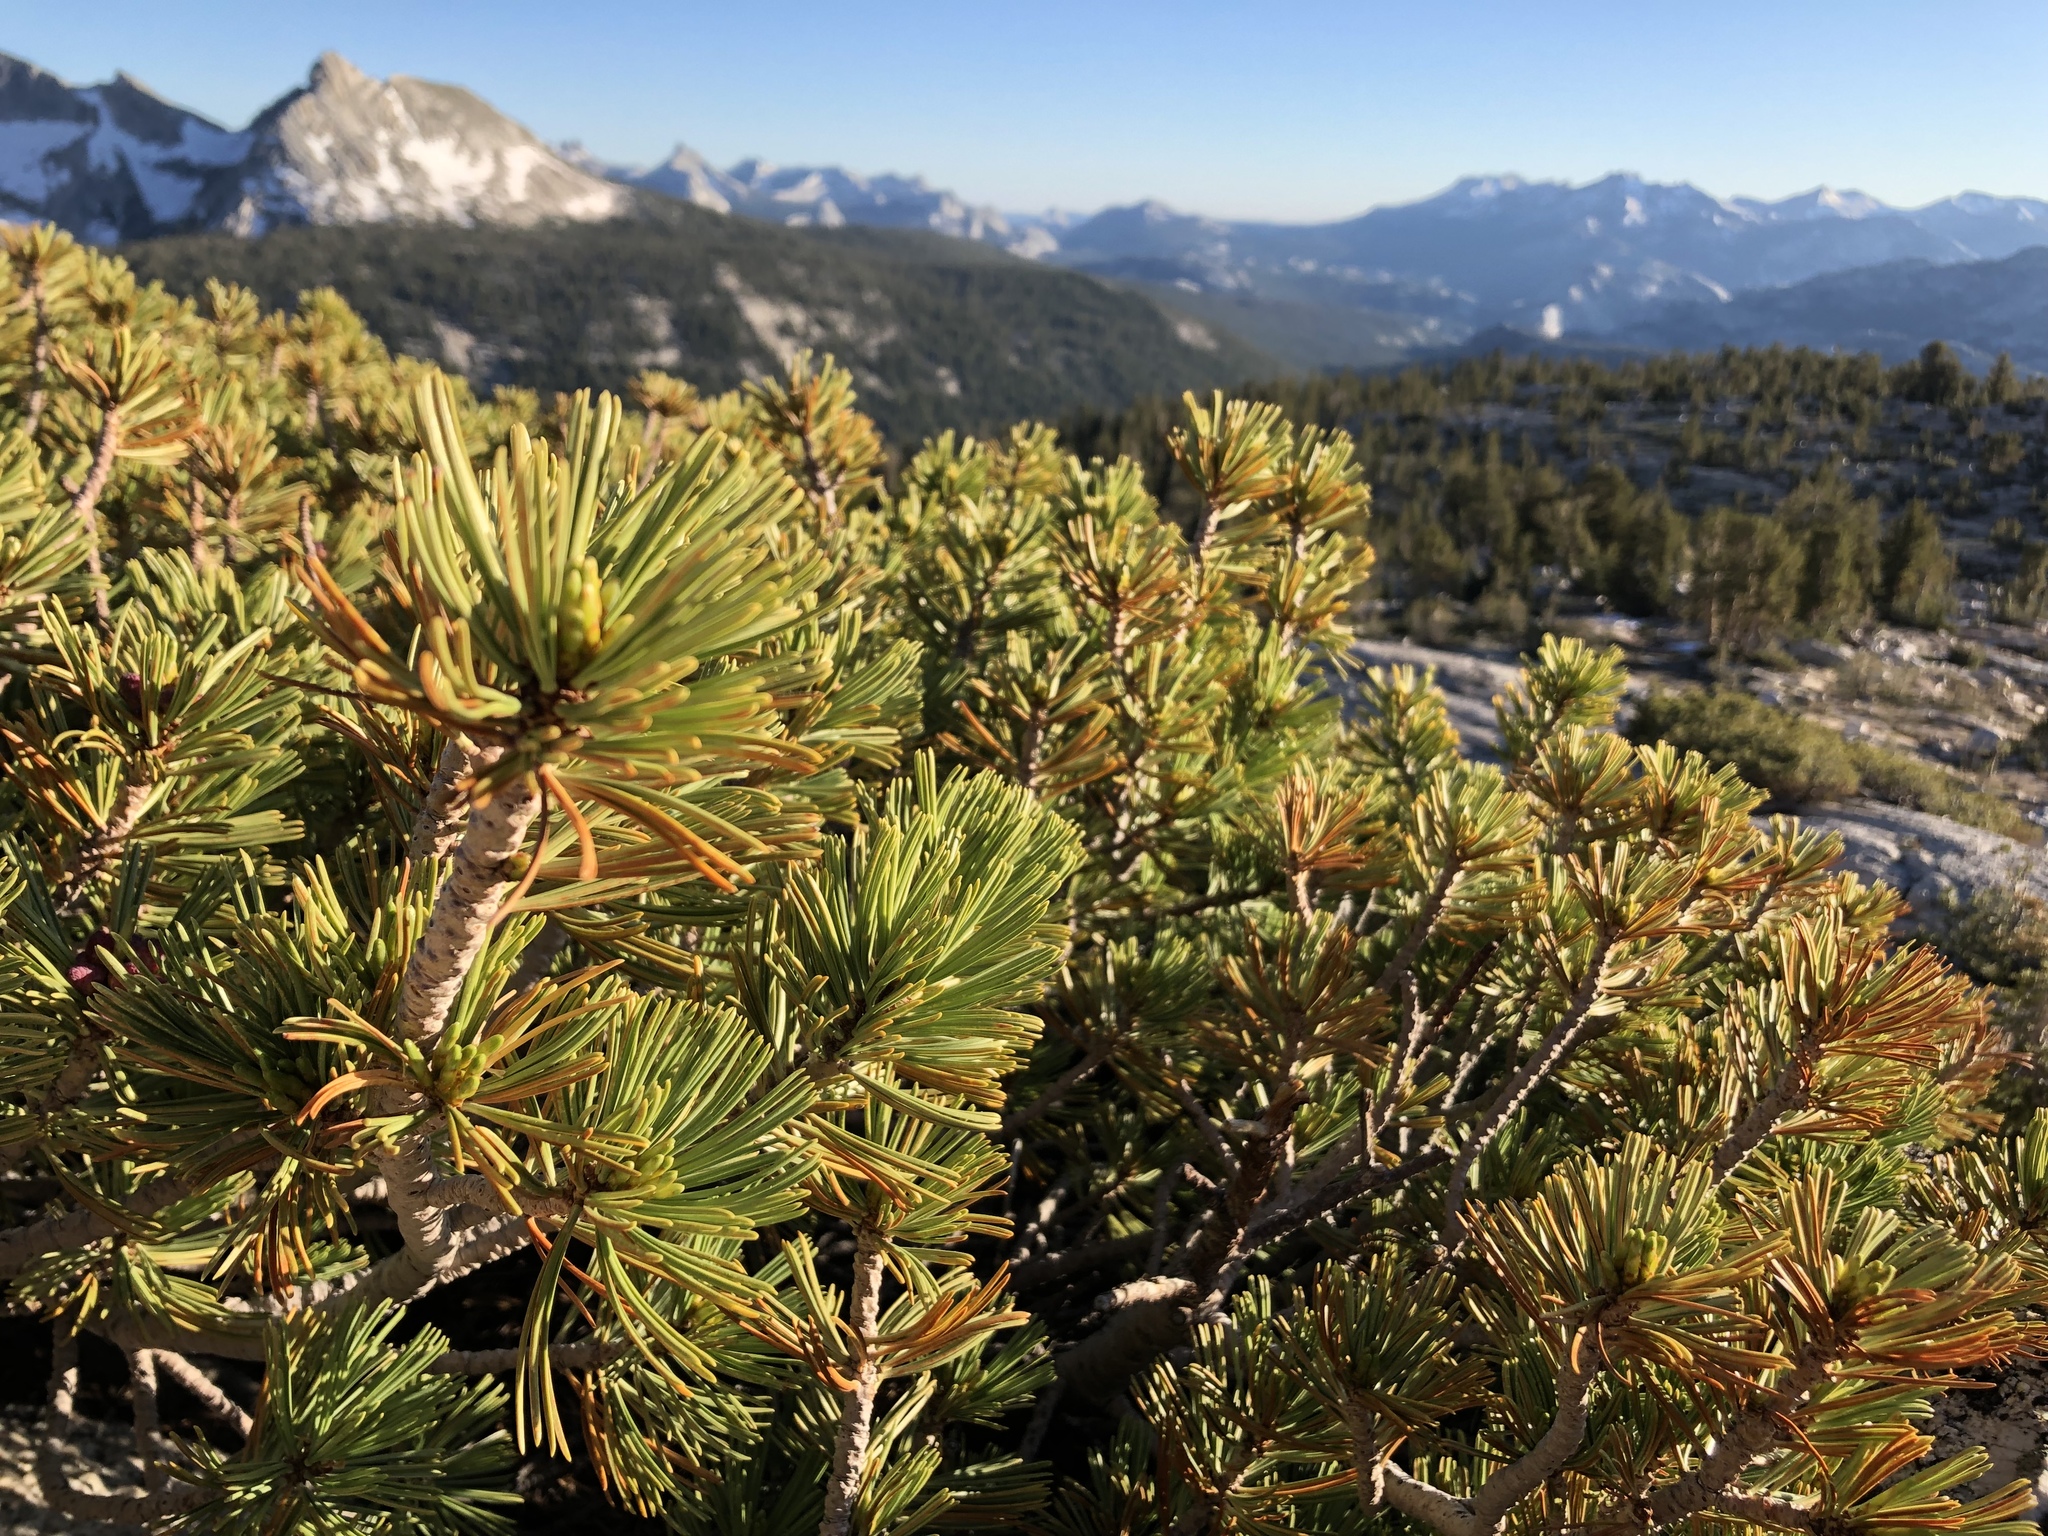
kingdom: Plantae
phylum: Tracheophyta
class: Pinopsida
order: Pinales
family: Pinaceae
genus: Pinus
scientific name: Pinus albicaulis
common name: Whitebark pine
